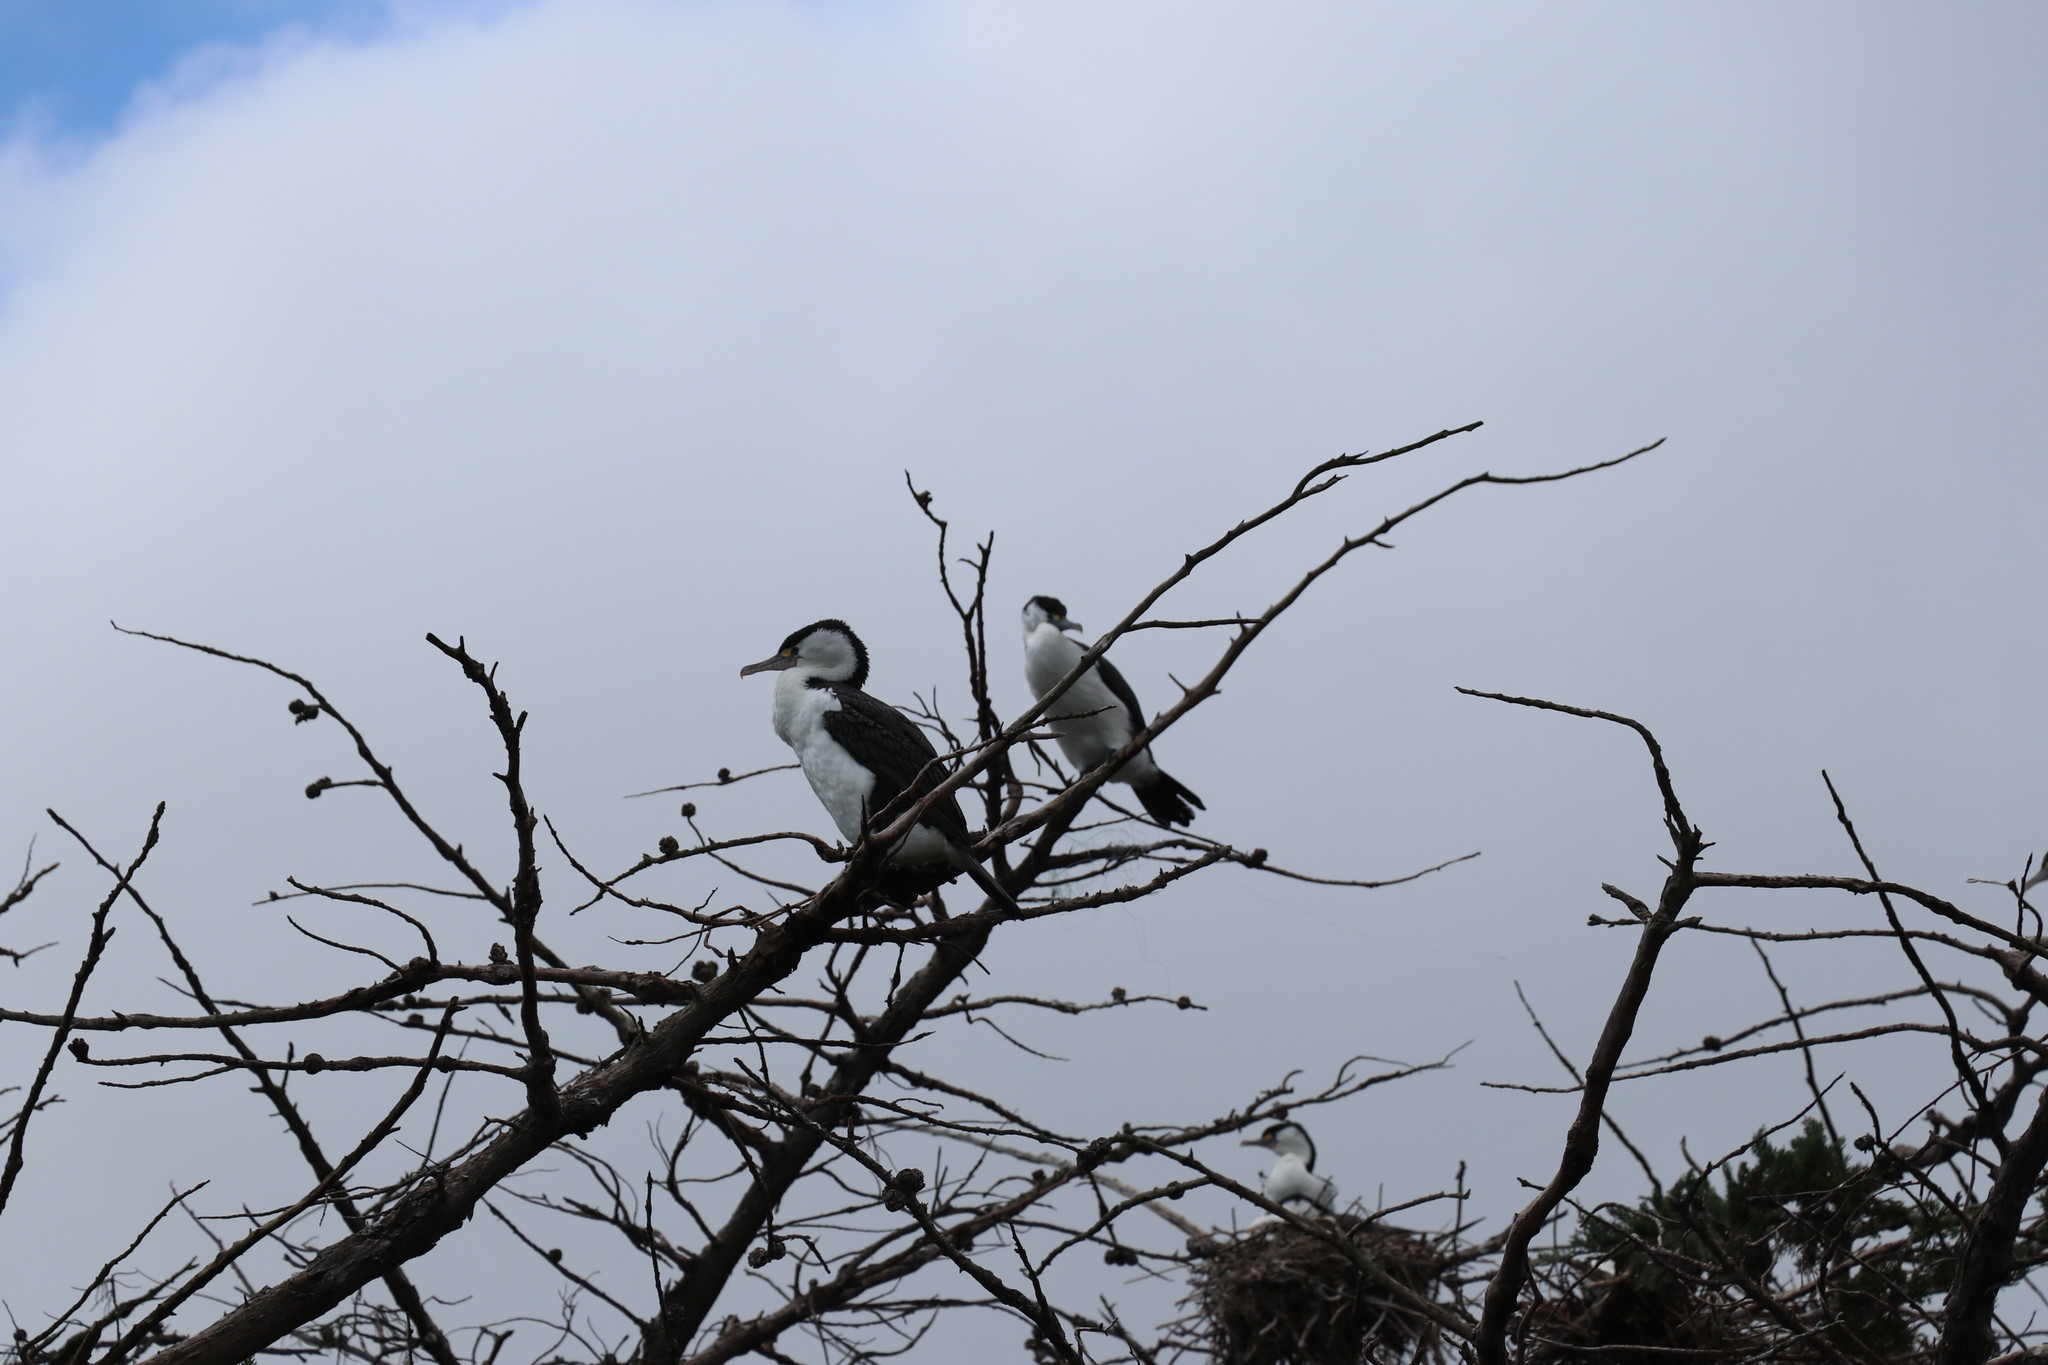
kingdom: Animalia
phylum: Chordata
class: Aves
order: Suliformes
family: Phalacrocoracidae
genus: Phalacrocorax
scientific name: Phalacrocorax varius
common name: Pied cormorant
